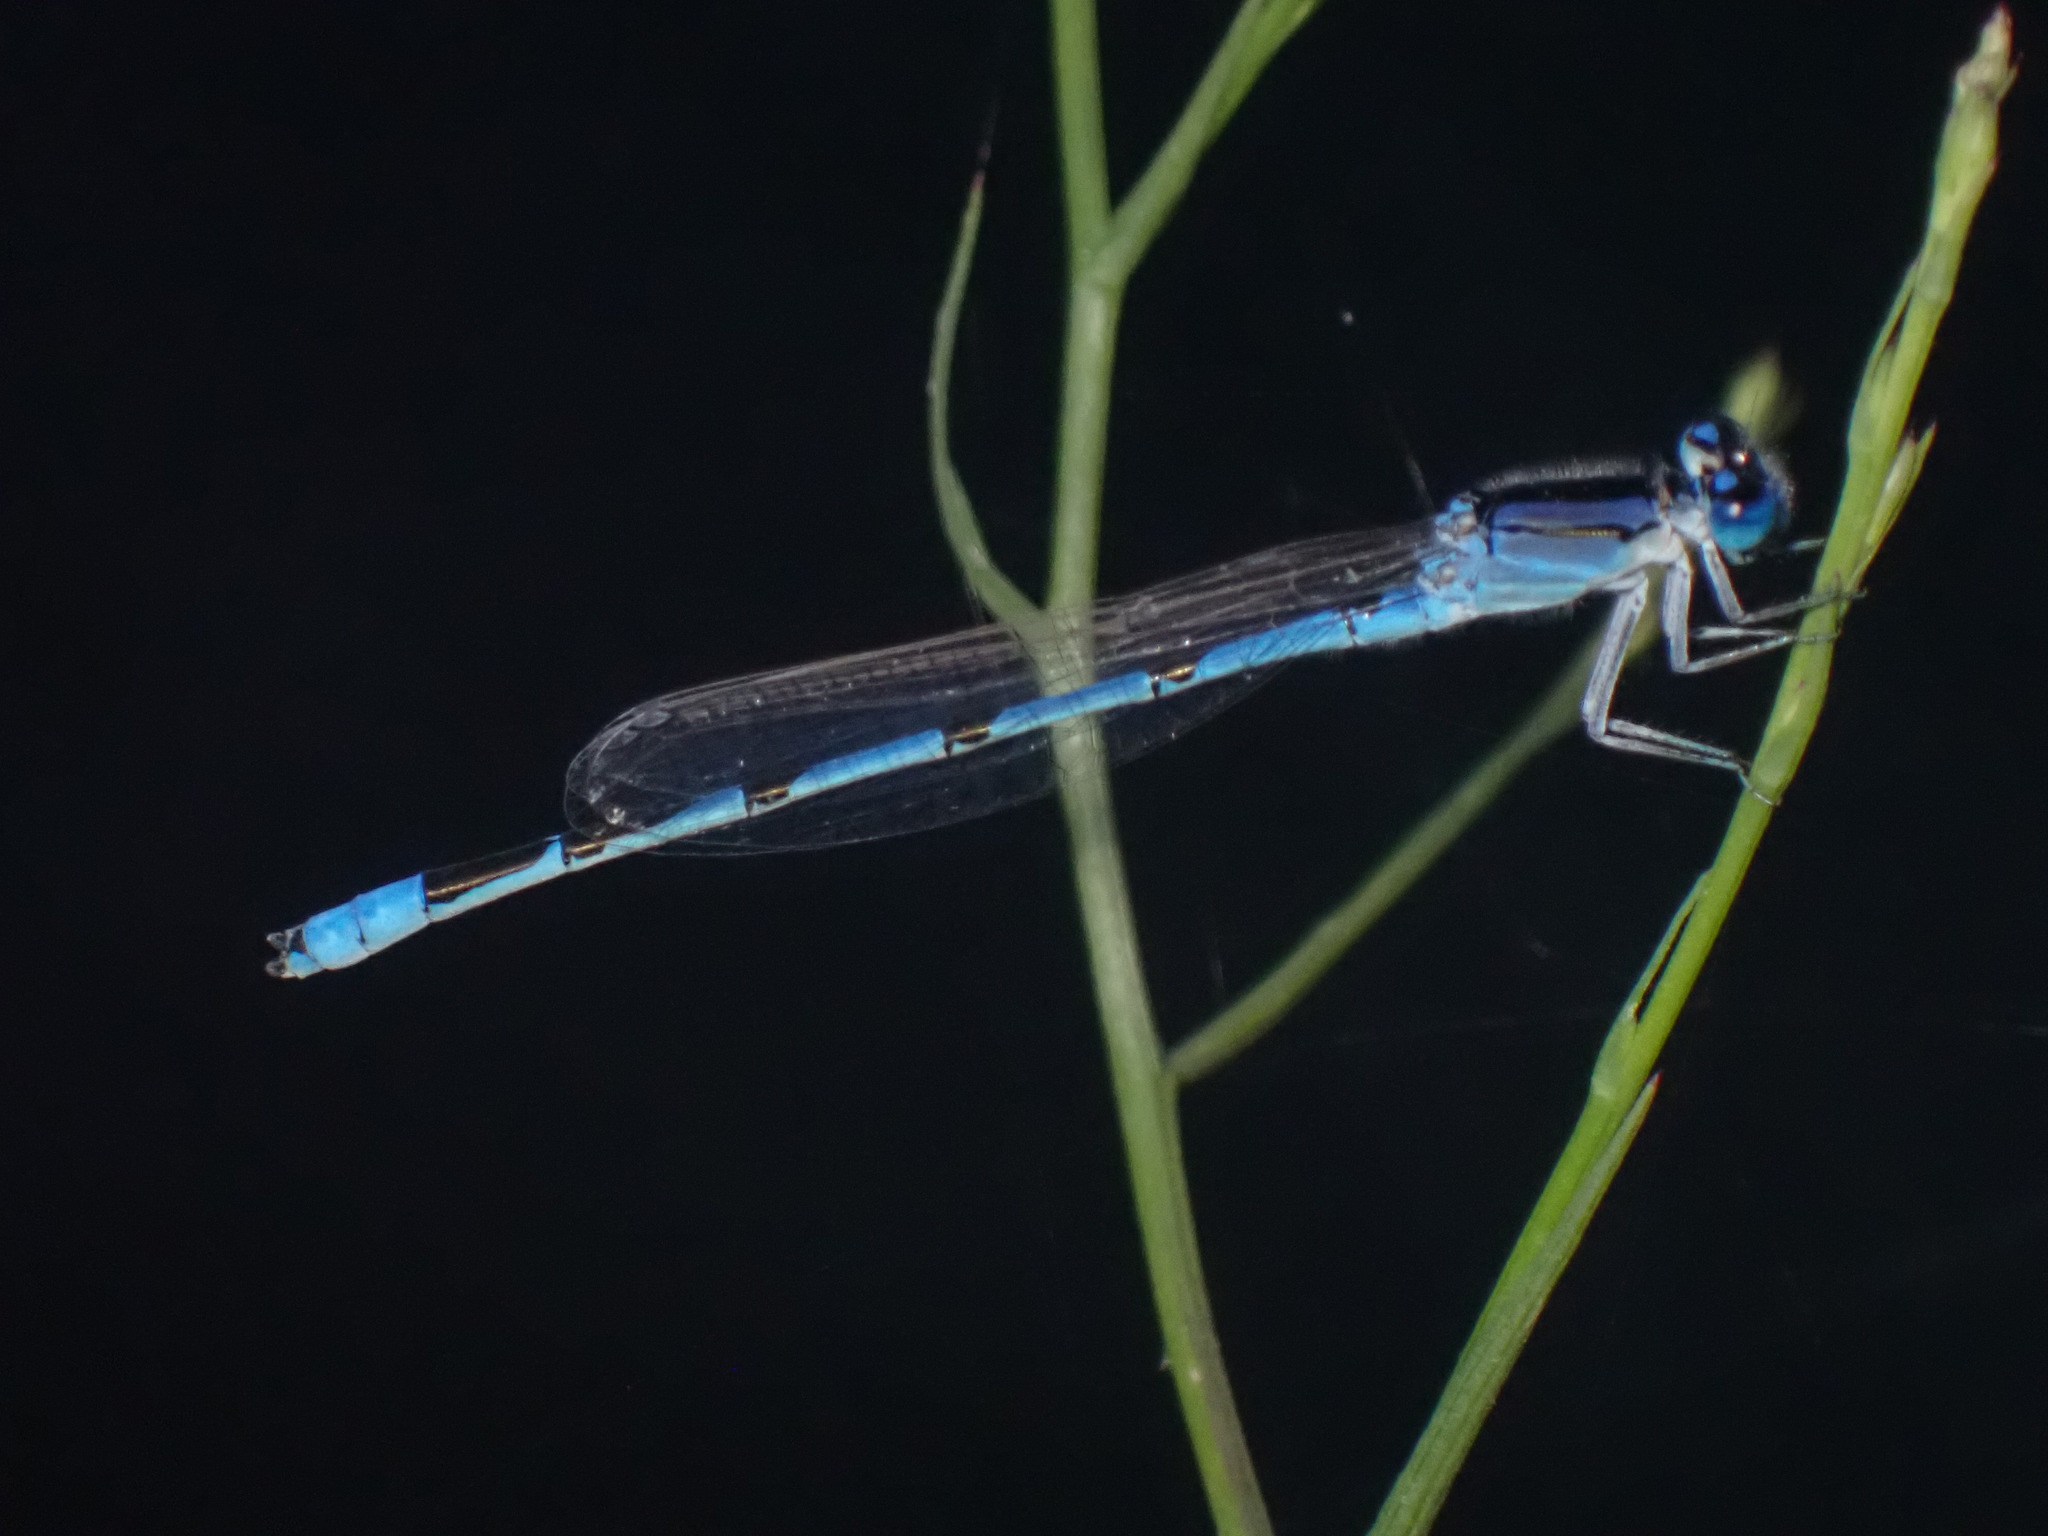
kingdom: Animalia
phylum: Arthropoda
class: Insecta
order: Odonata
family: Coenagrionidae
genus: Enallagma
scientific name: Enallagma civile
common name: Damselfly
